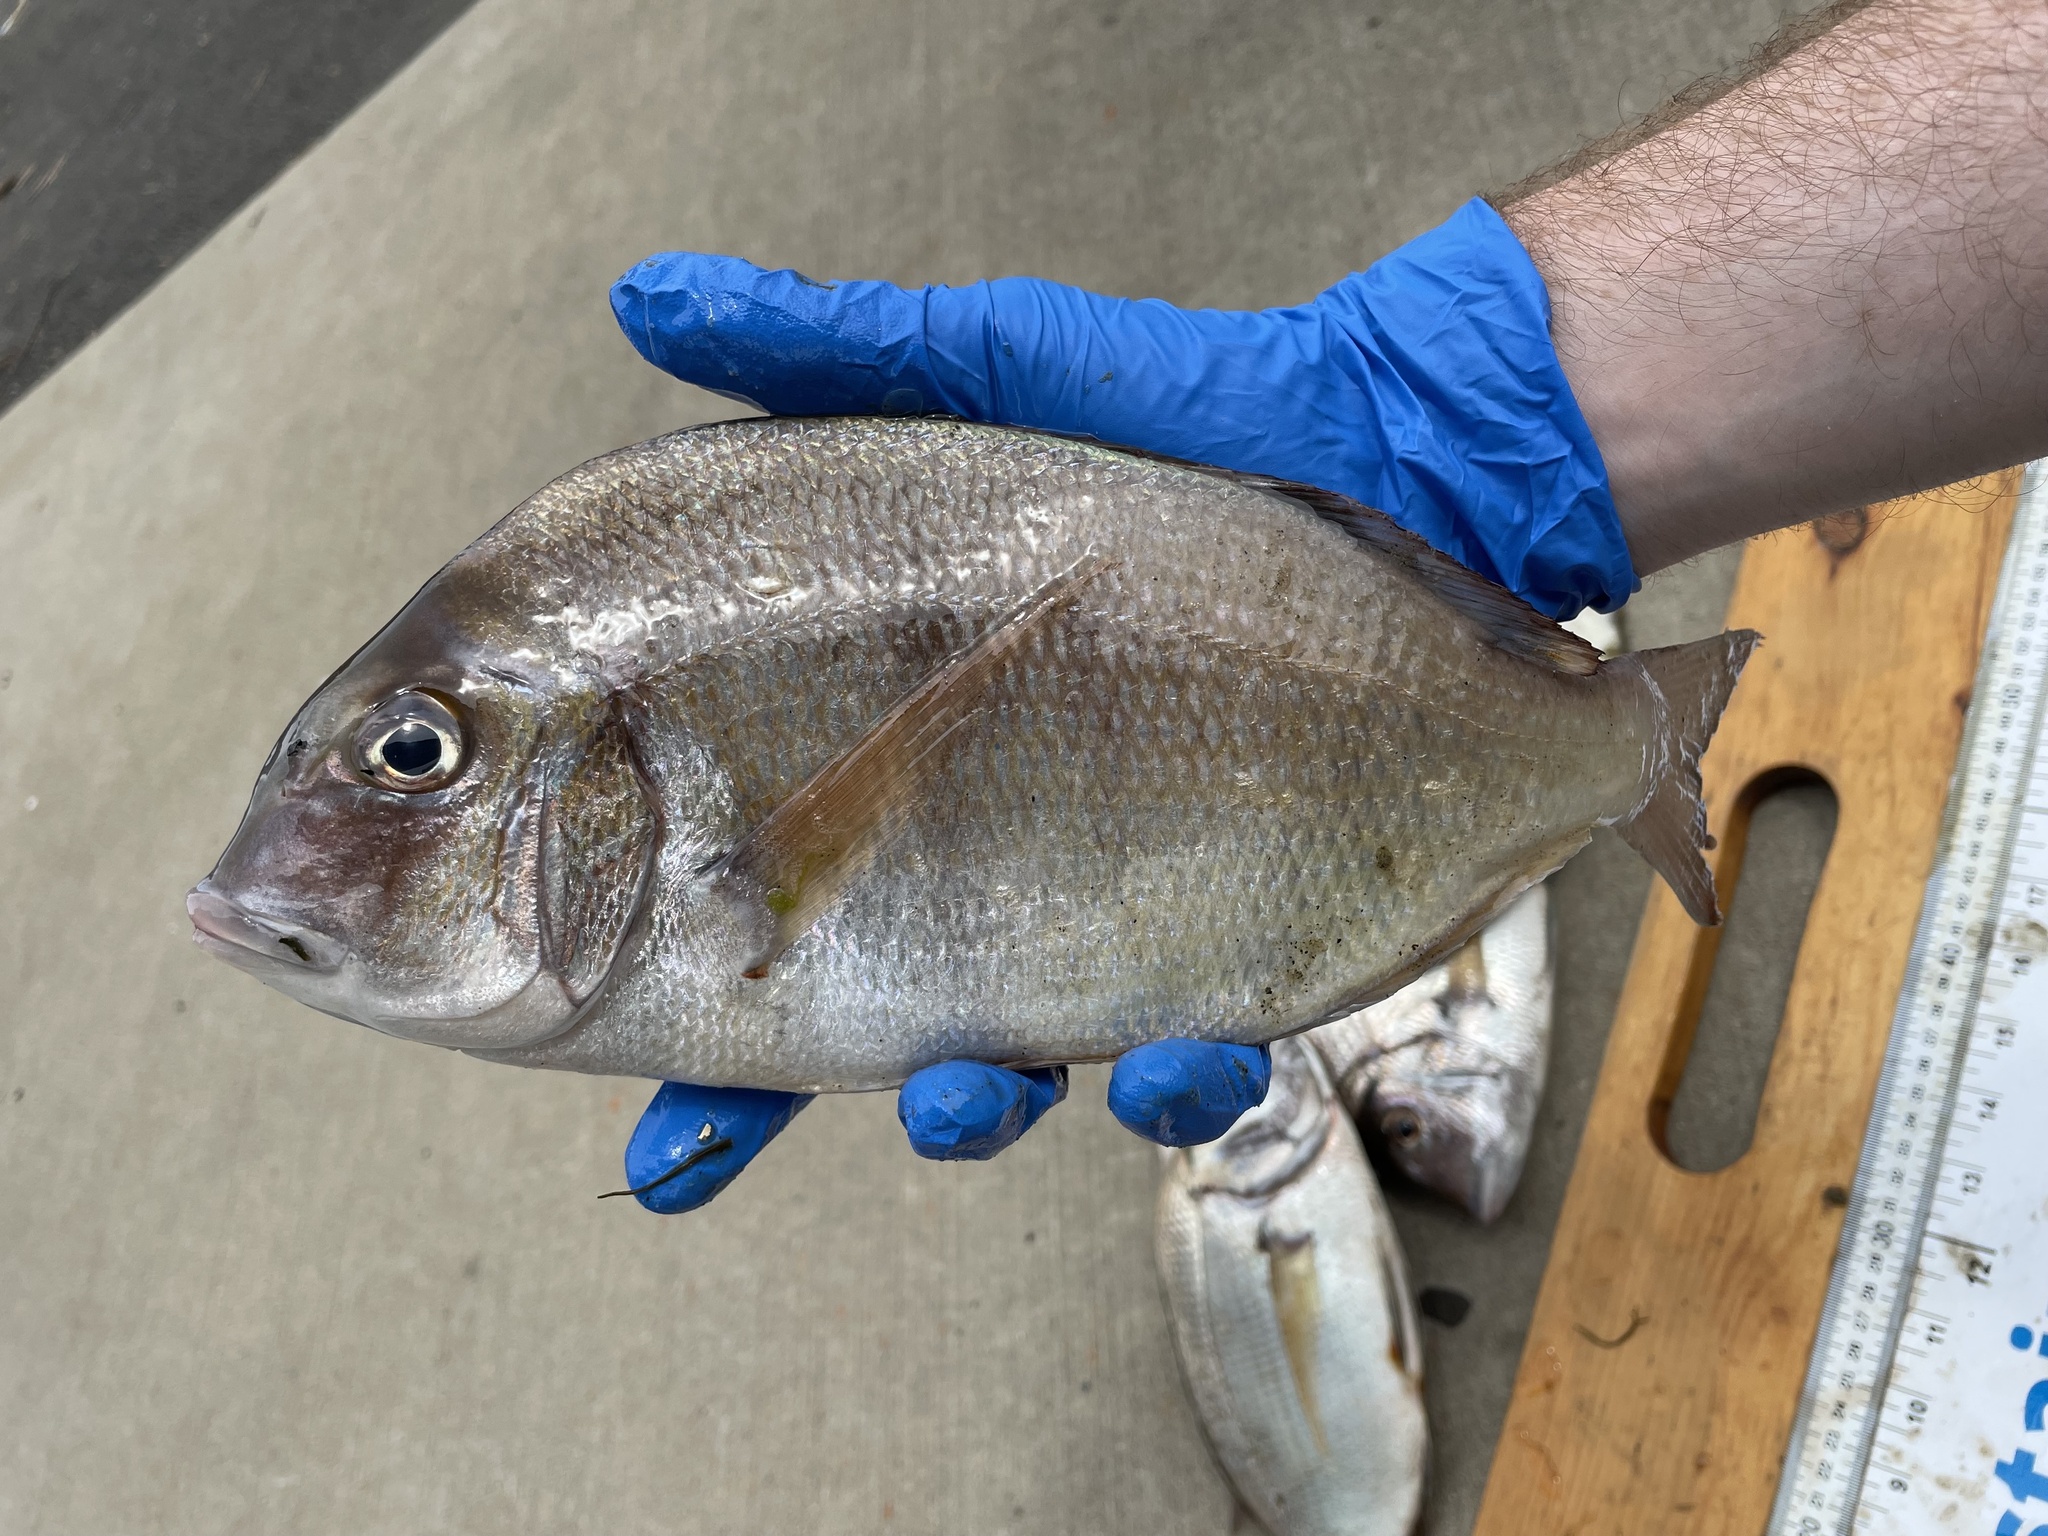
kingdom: Animalia
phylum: Chordata
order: Perciformes
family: Sparidae
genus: Stenotomus
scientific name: Stenotomus chrysops
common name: Scup
